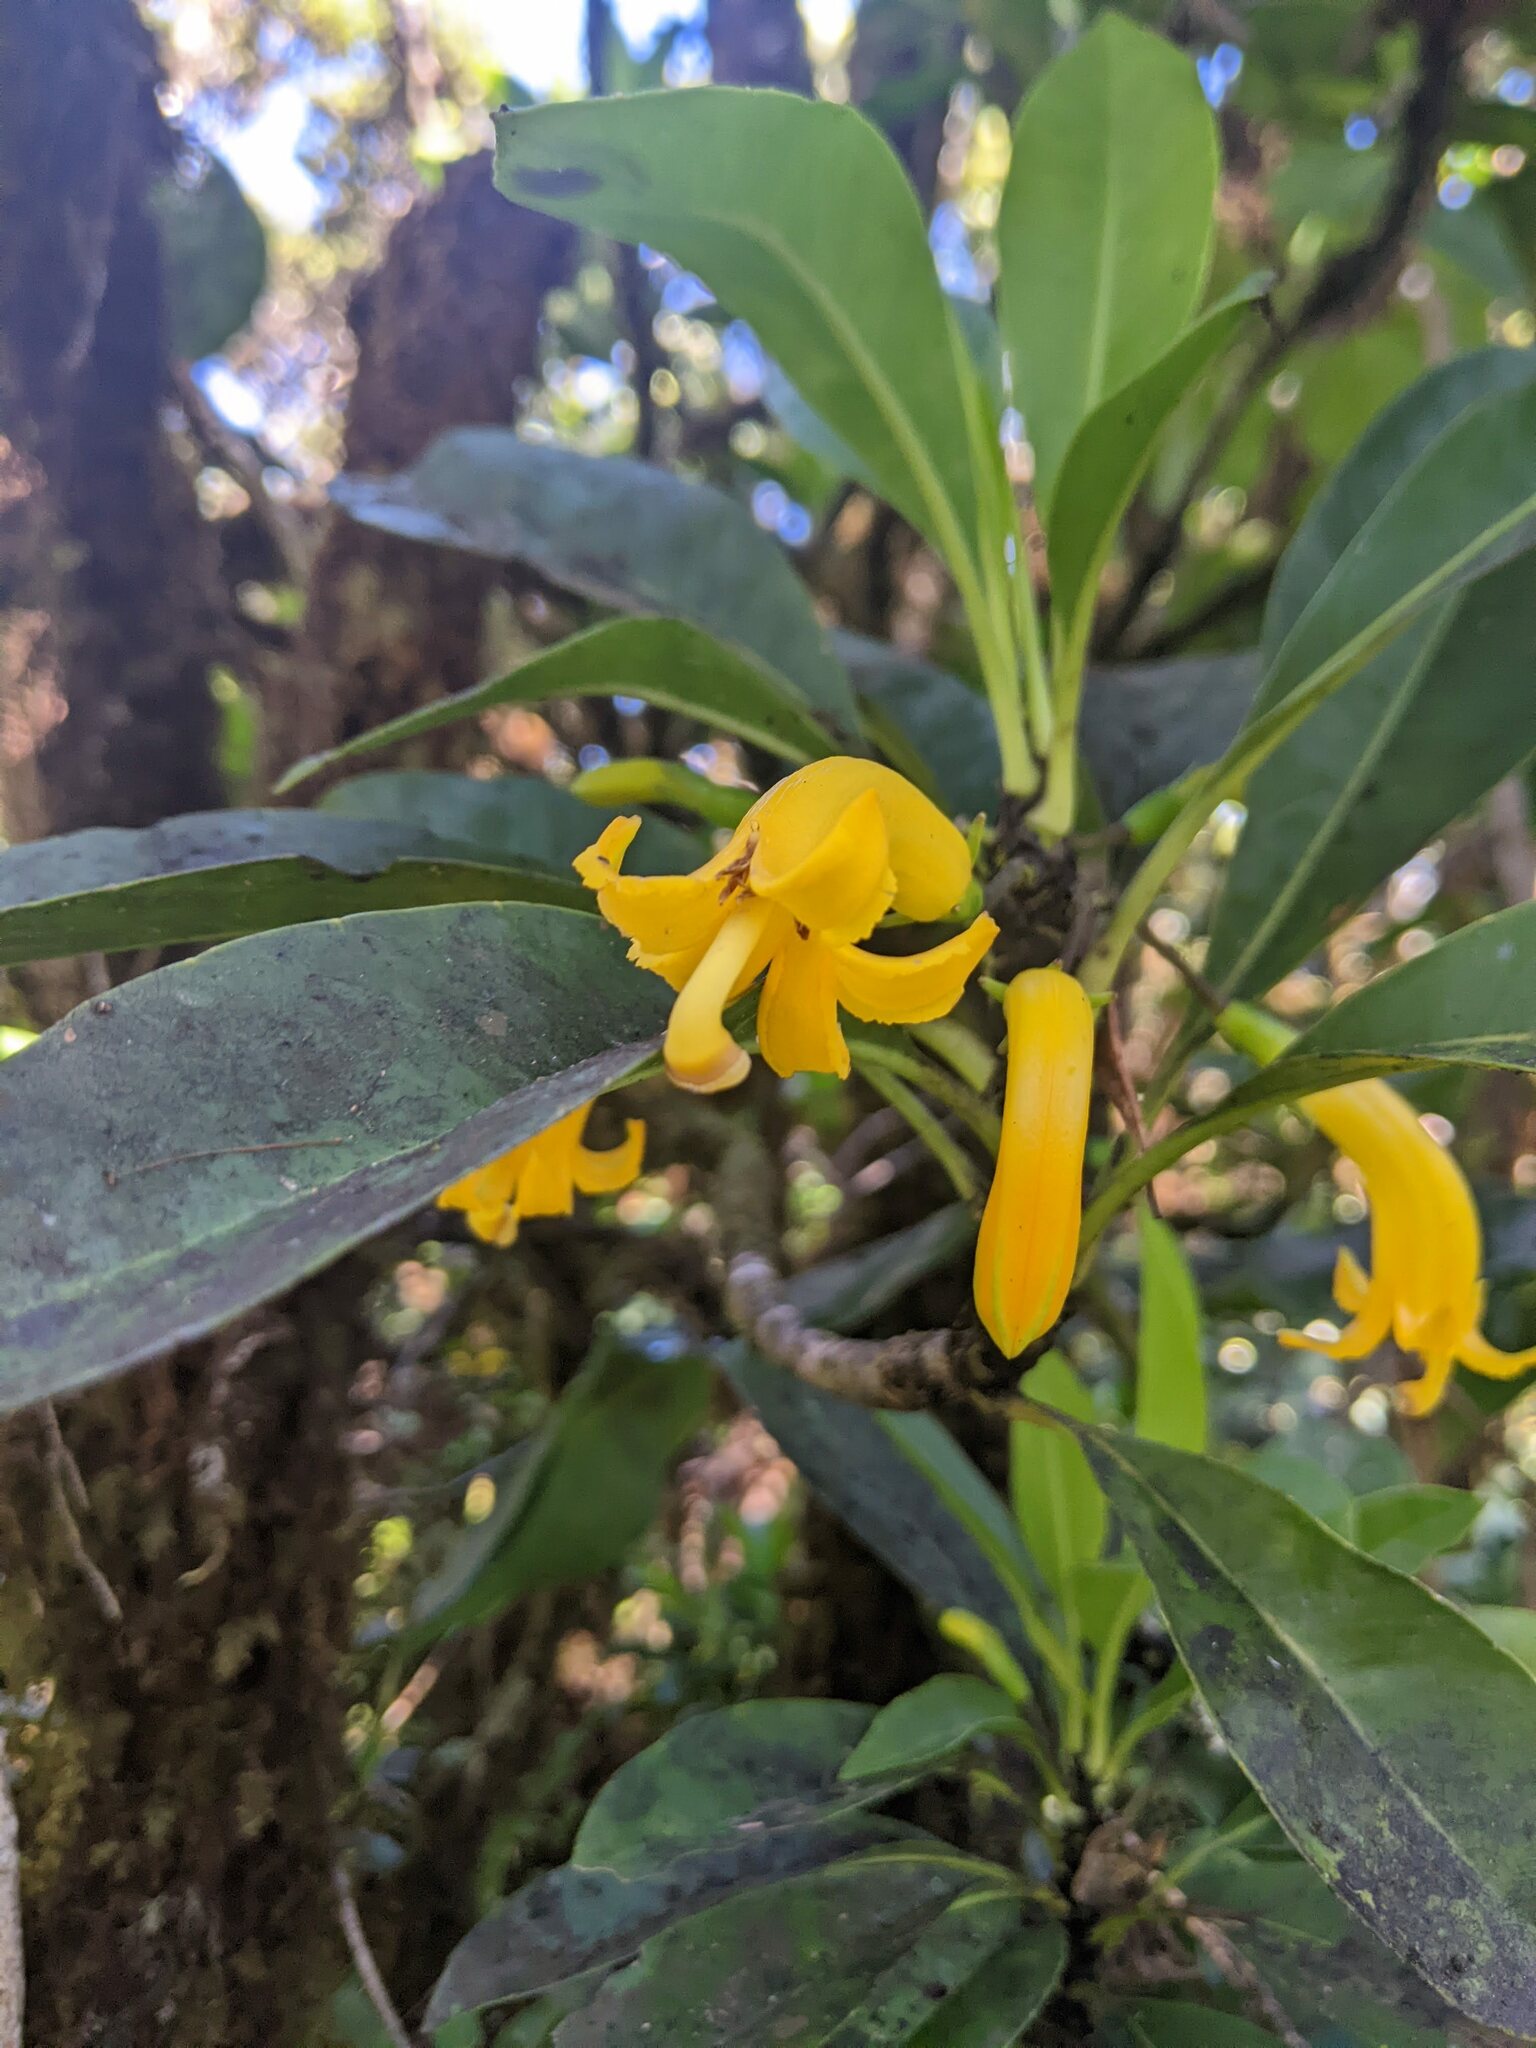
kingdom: Plantae
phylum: Tracheophyta
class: Magnoliopsida
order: Asterales
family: Goodeniaceae
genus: Scaevola
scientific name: Scaevola glabra
